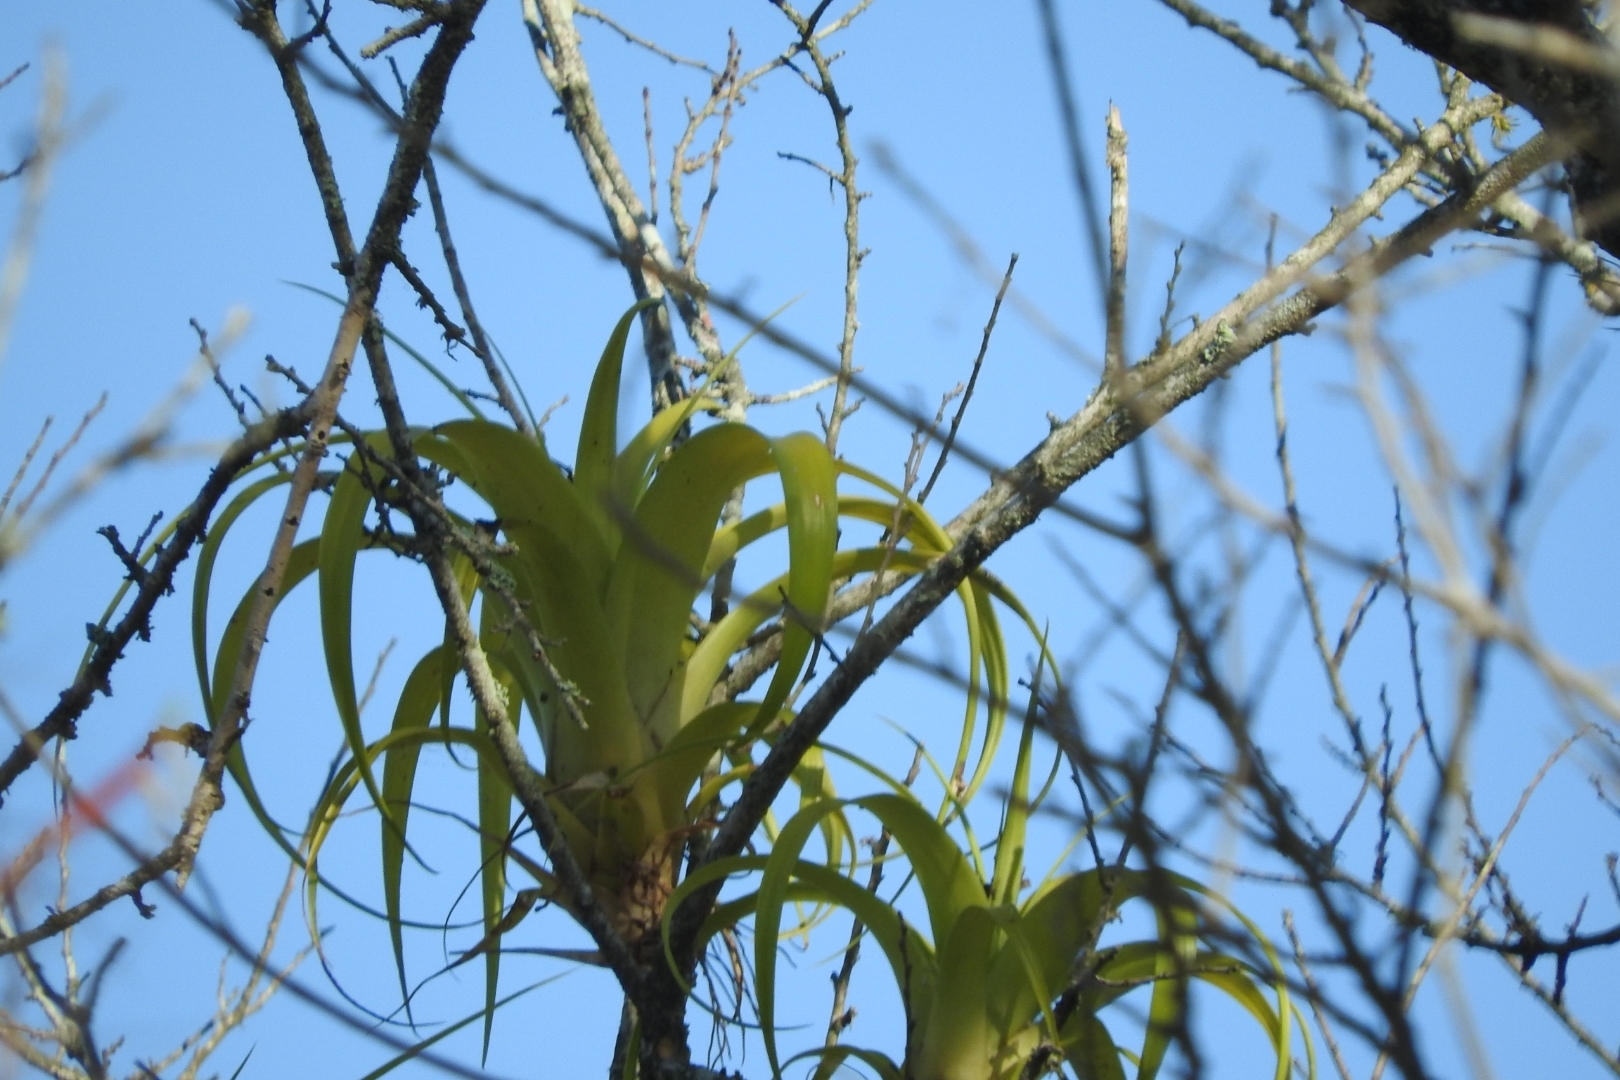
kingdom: Plantae
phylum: Tracheophyta
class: Liliopsida
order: Poales
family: Bromeliaceae
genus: Tillandsia
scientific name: Tillandsia polystachia
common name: Airplant
